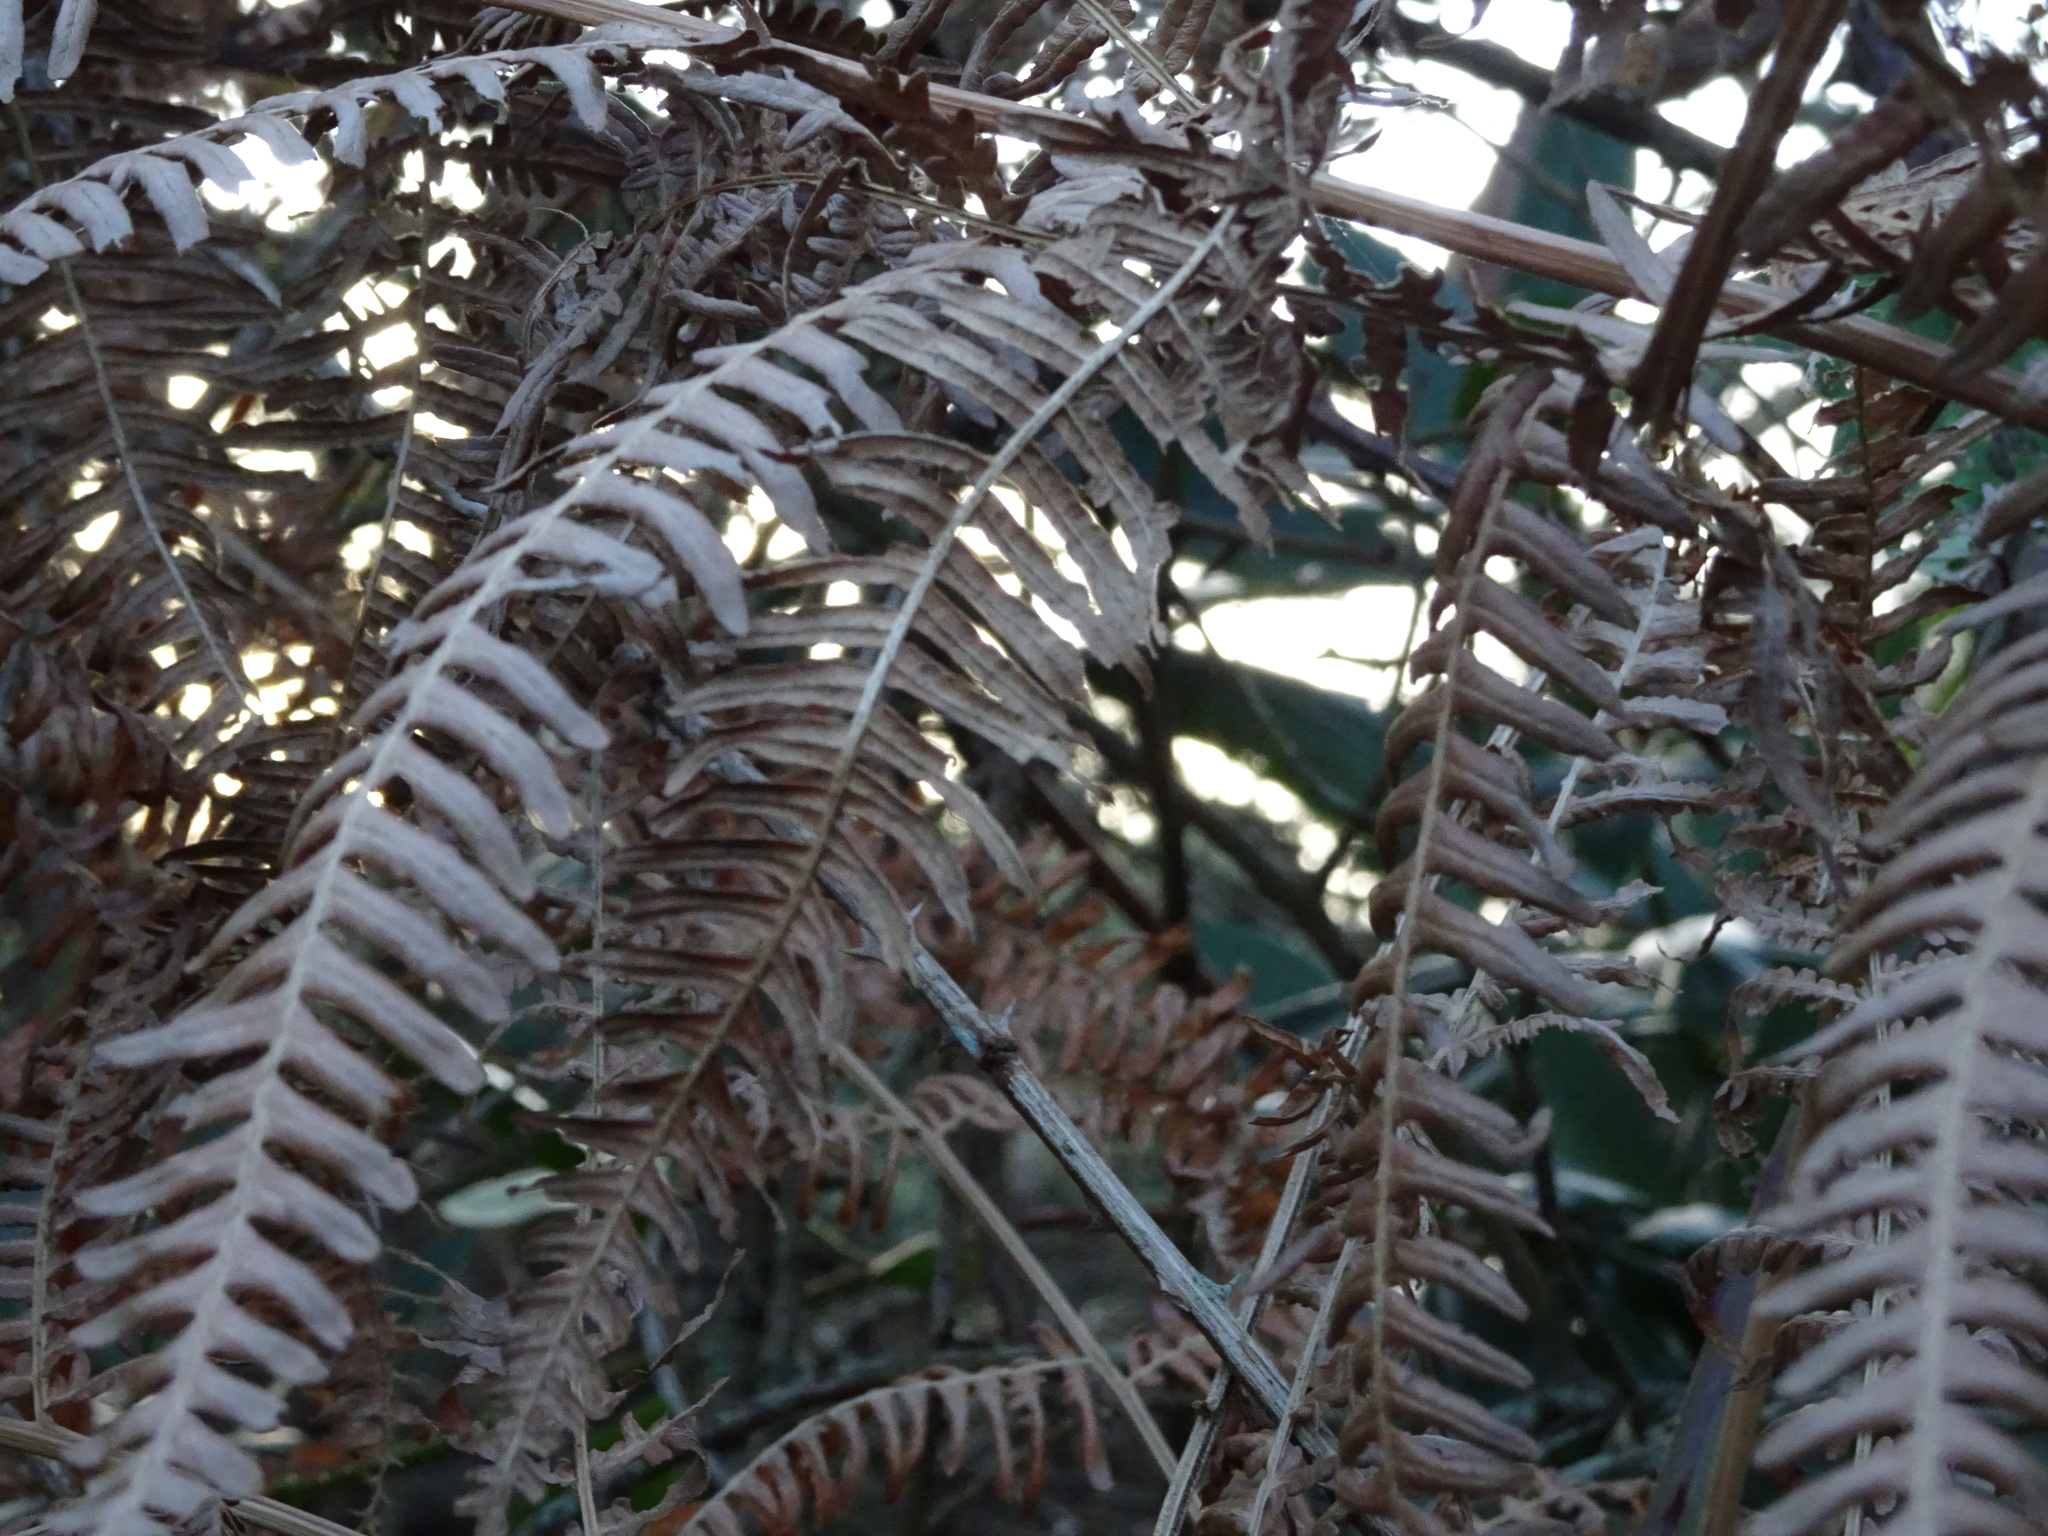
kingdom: Plantae
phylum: Tracheophyta
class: Polypodiopsida
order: Polypodiales
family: Dennstaedtiaceae
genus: Pteridium
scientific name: Pteridium aquilinum
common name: Bracken
